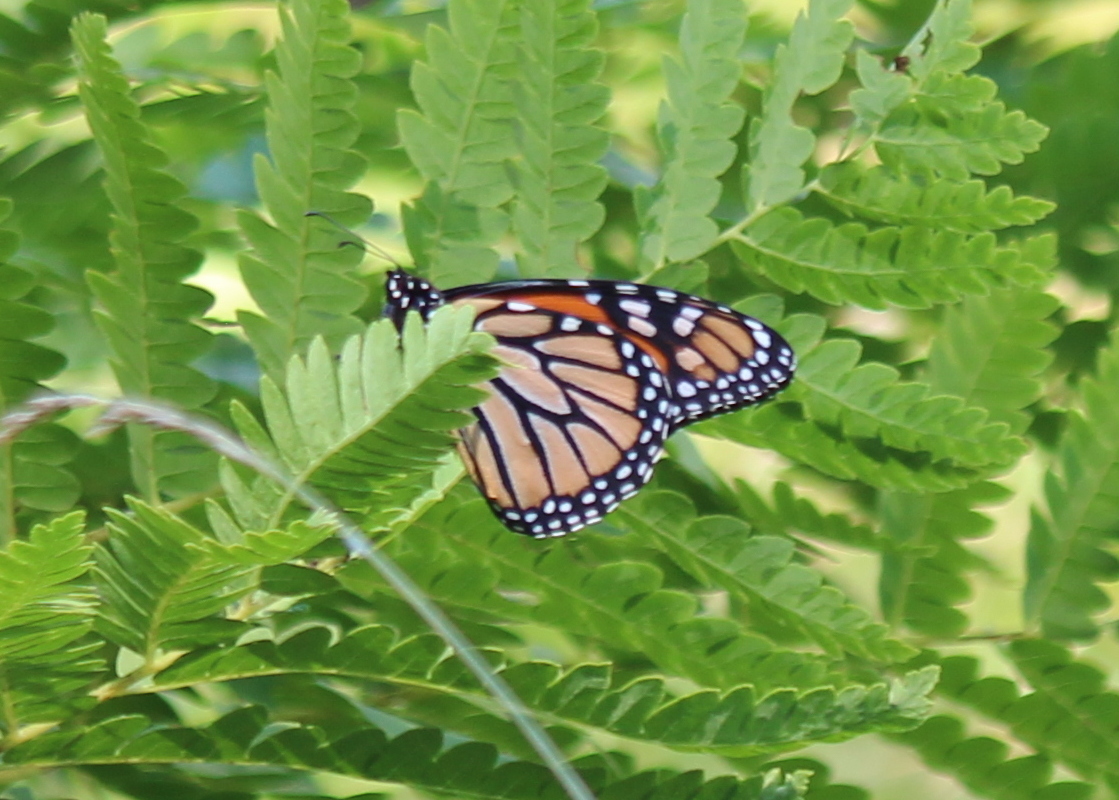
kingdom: Animalia
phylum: Arthropoda
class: Insecta
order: Lepidoptera
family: Nymphalidae
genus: Danaus
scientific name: Danaus plexippus
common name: Monarch
